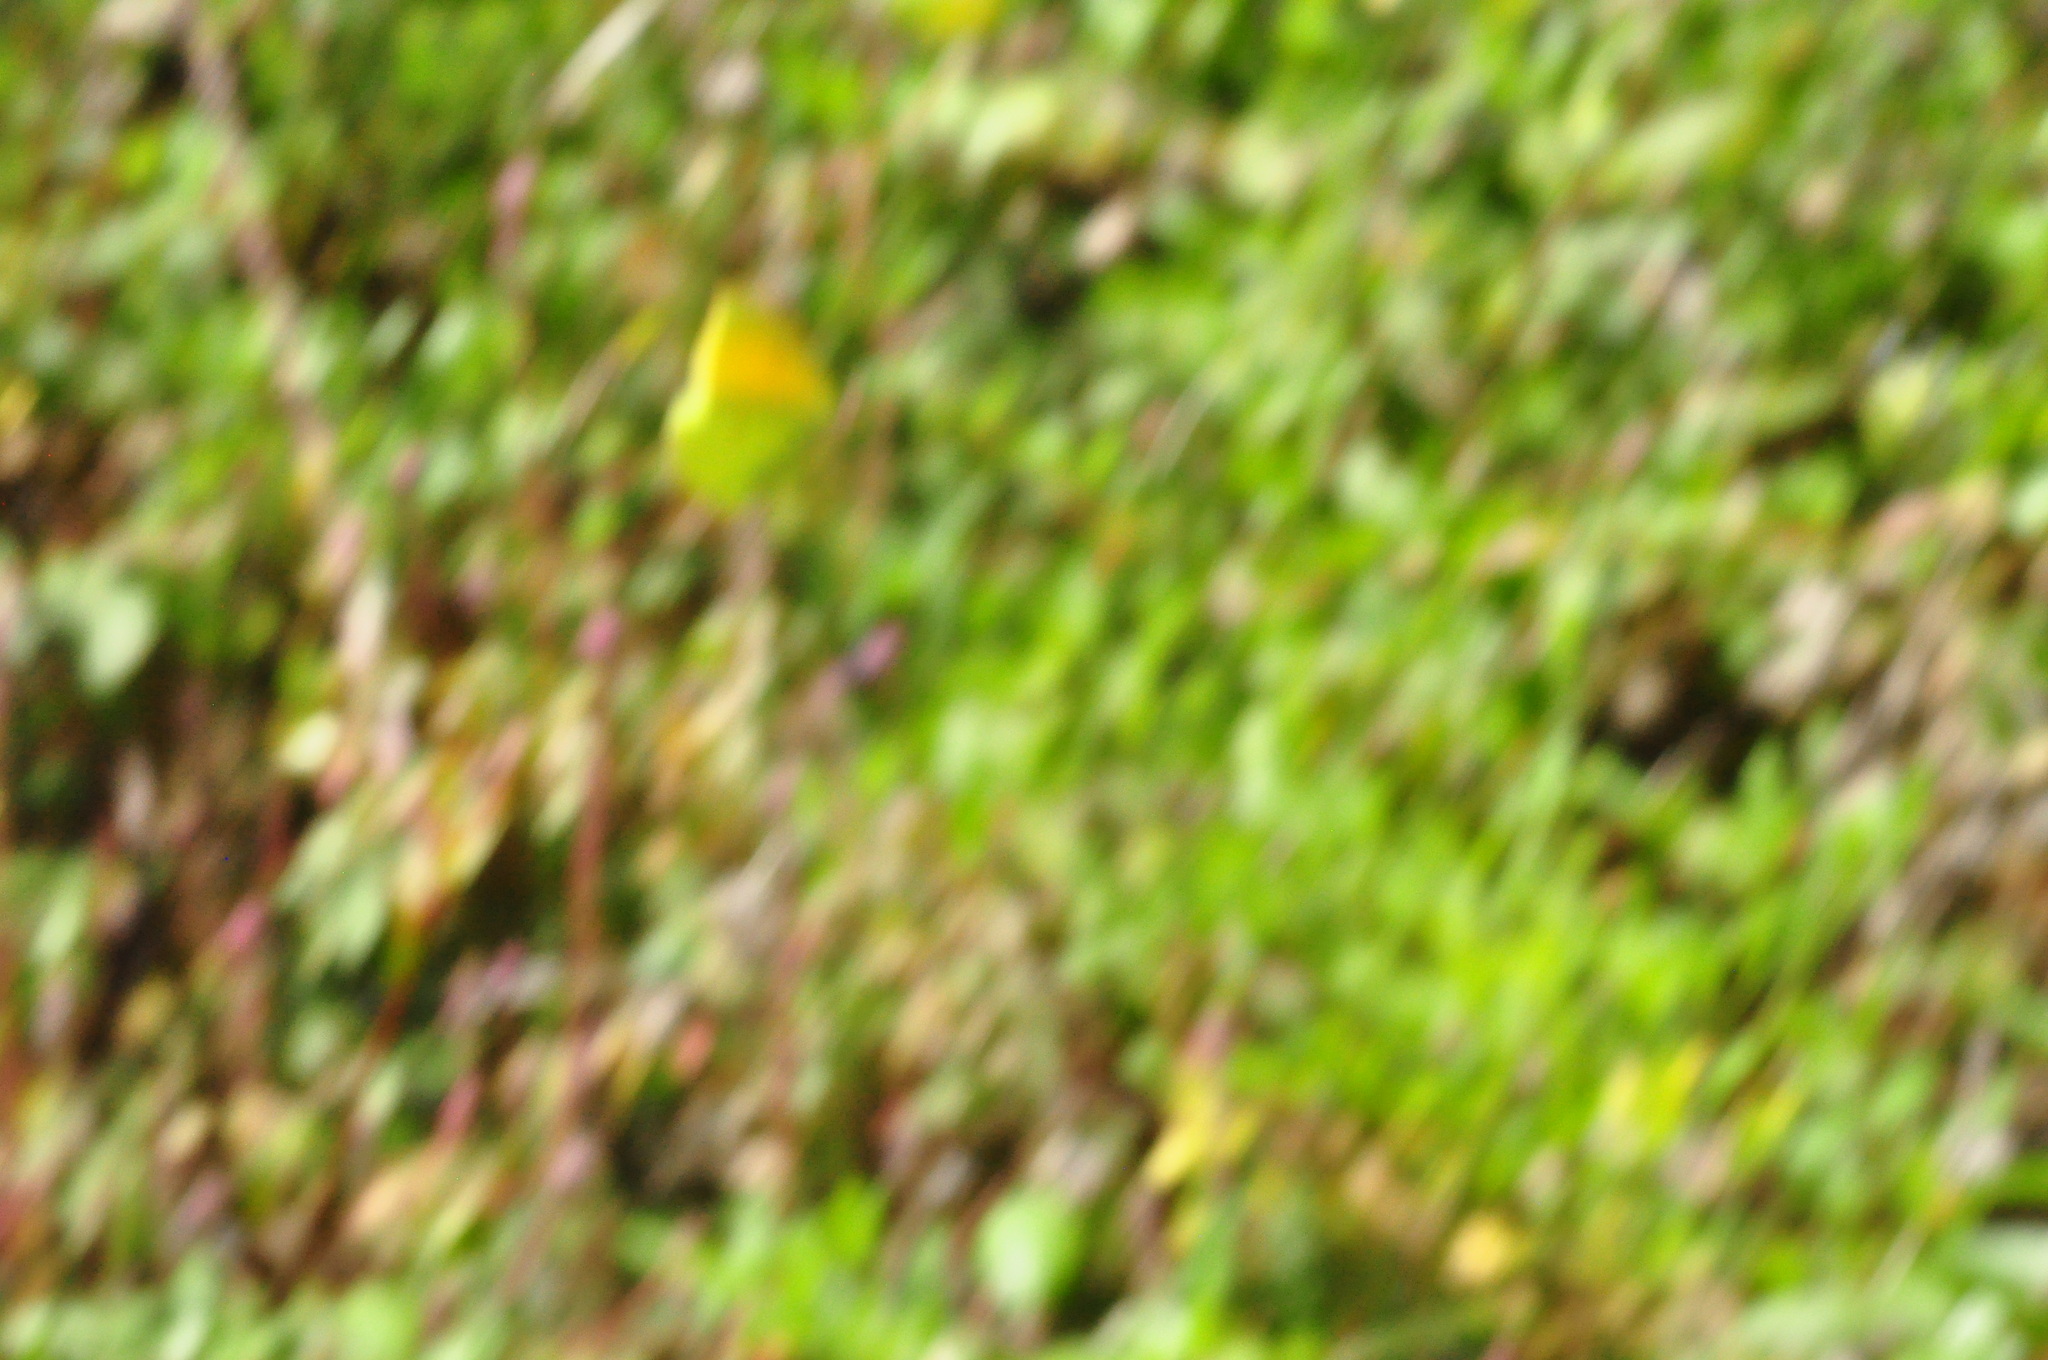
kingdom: Animalia
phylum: Arthropoda
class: Insecta
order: Lepidoptera
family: Pieridae
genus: Gonepteryx
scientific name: Gonepteryx cleobule
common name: Canary brimstone
